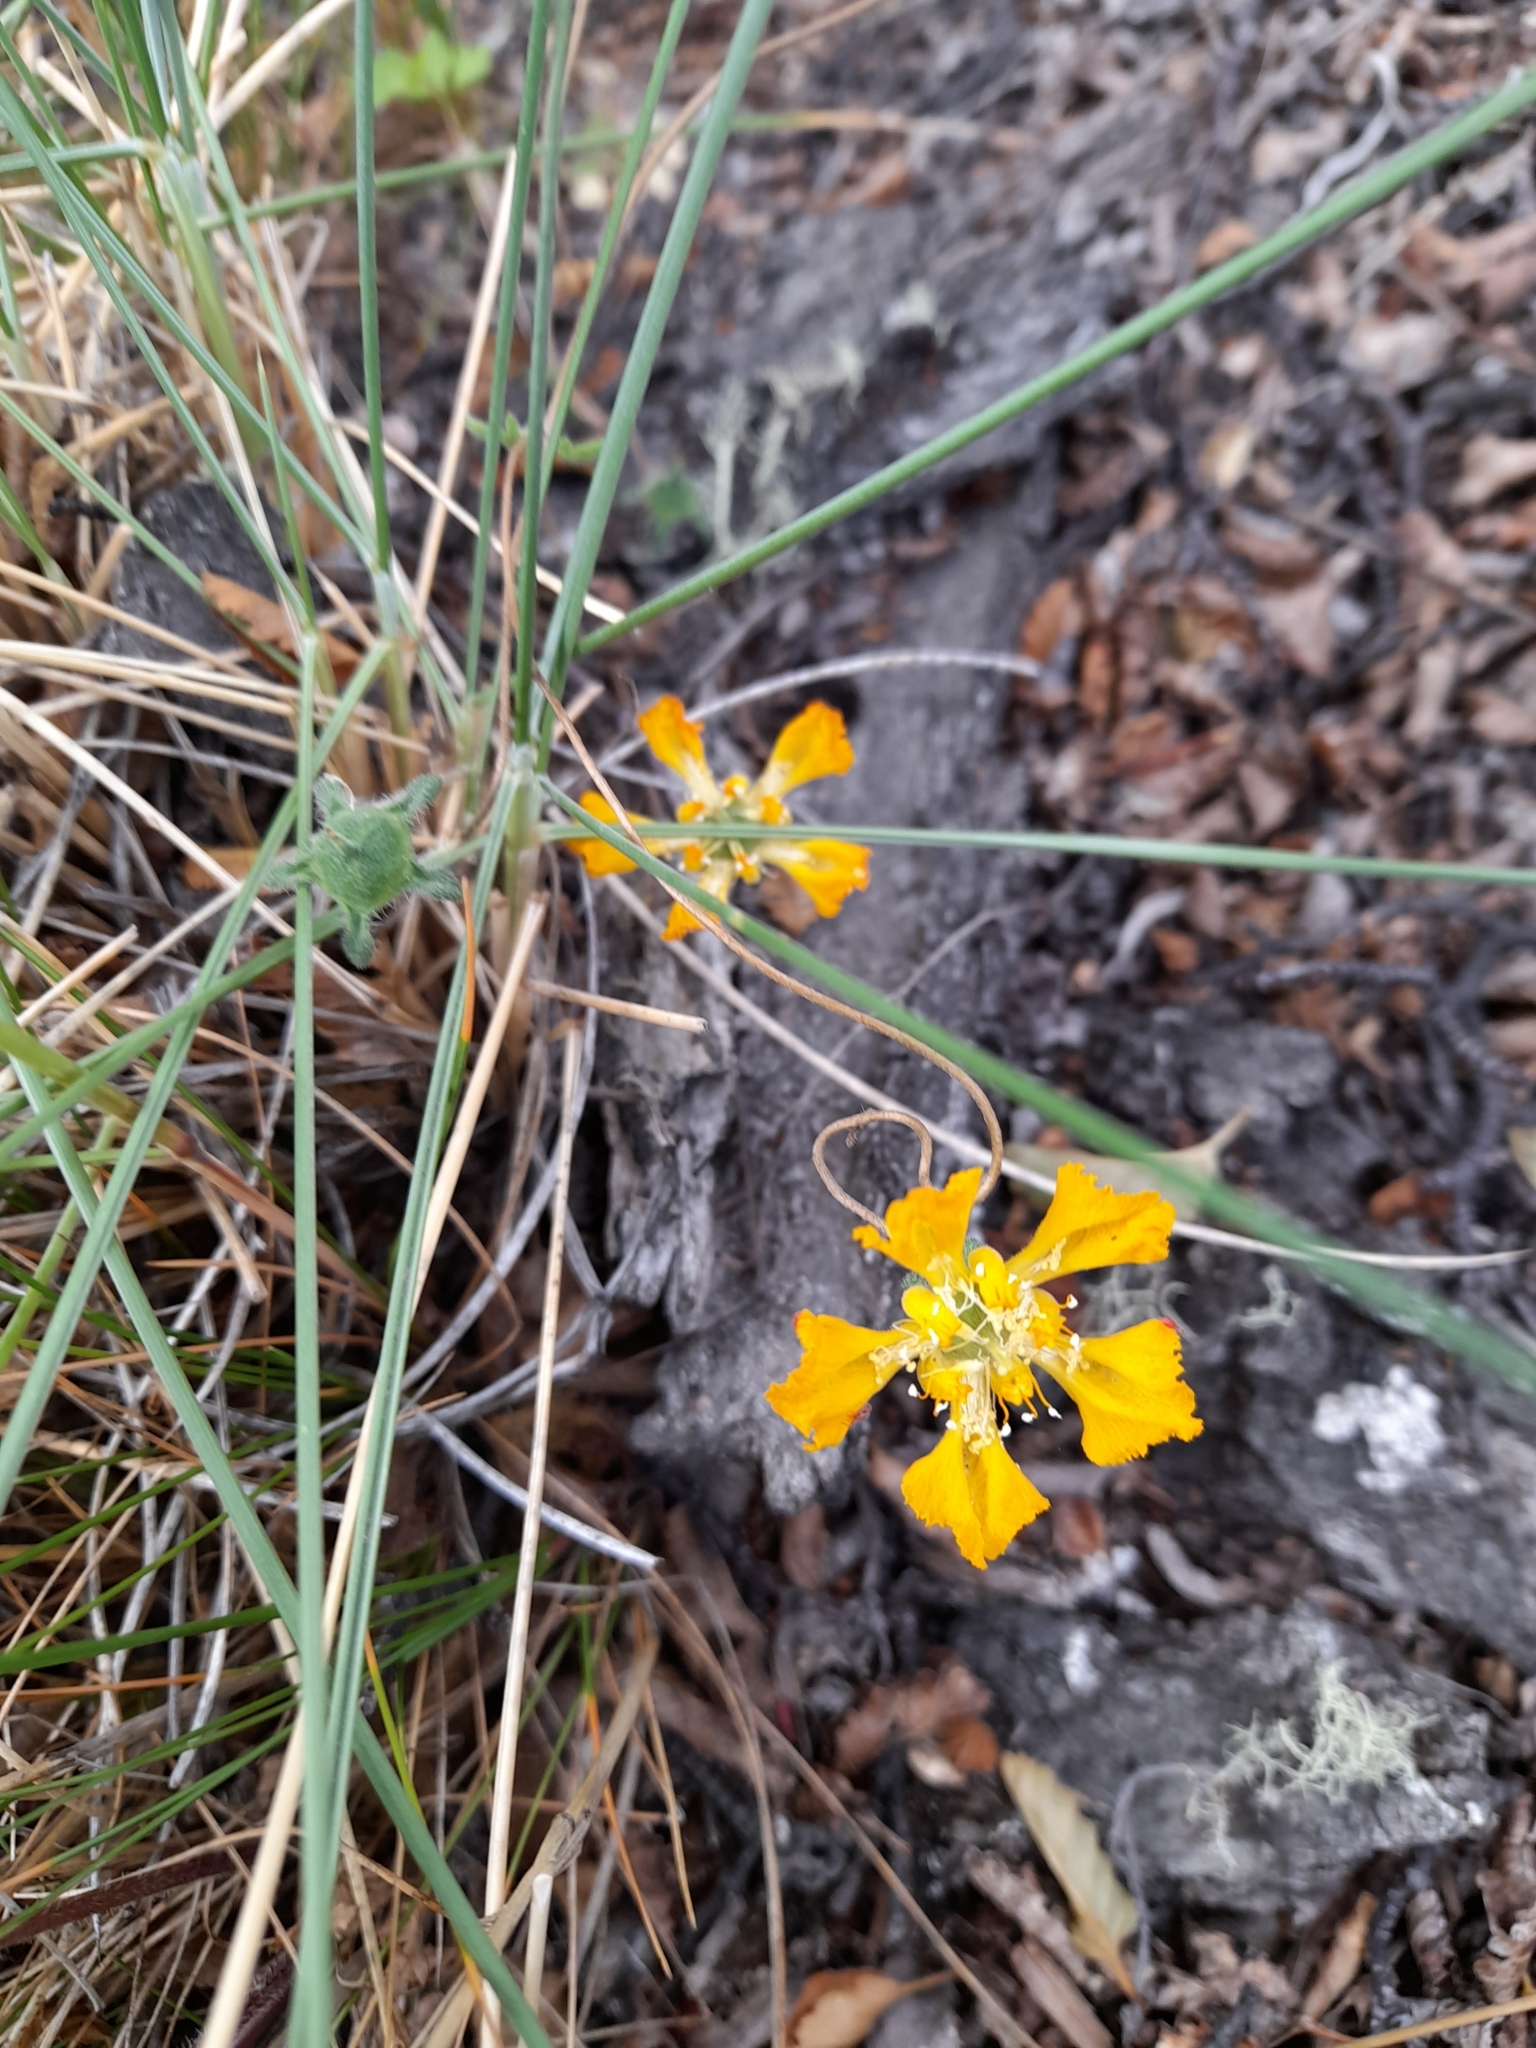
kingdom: Plantae
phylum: Tracheophyta
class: Magnoliopsida
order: Cornales
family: Loasaceae
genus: Pinnasa
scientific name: Pinnasa bergii
